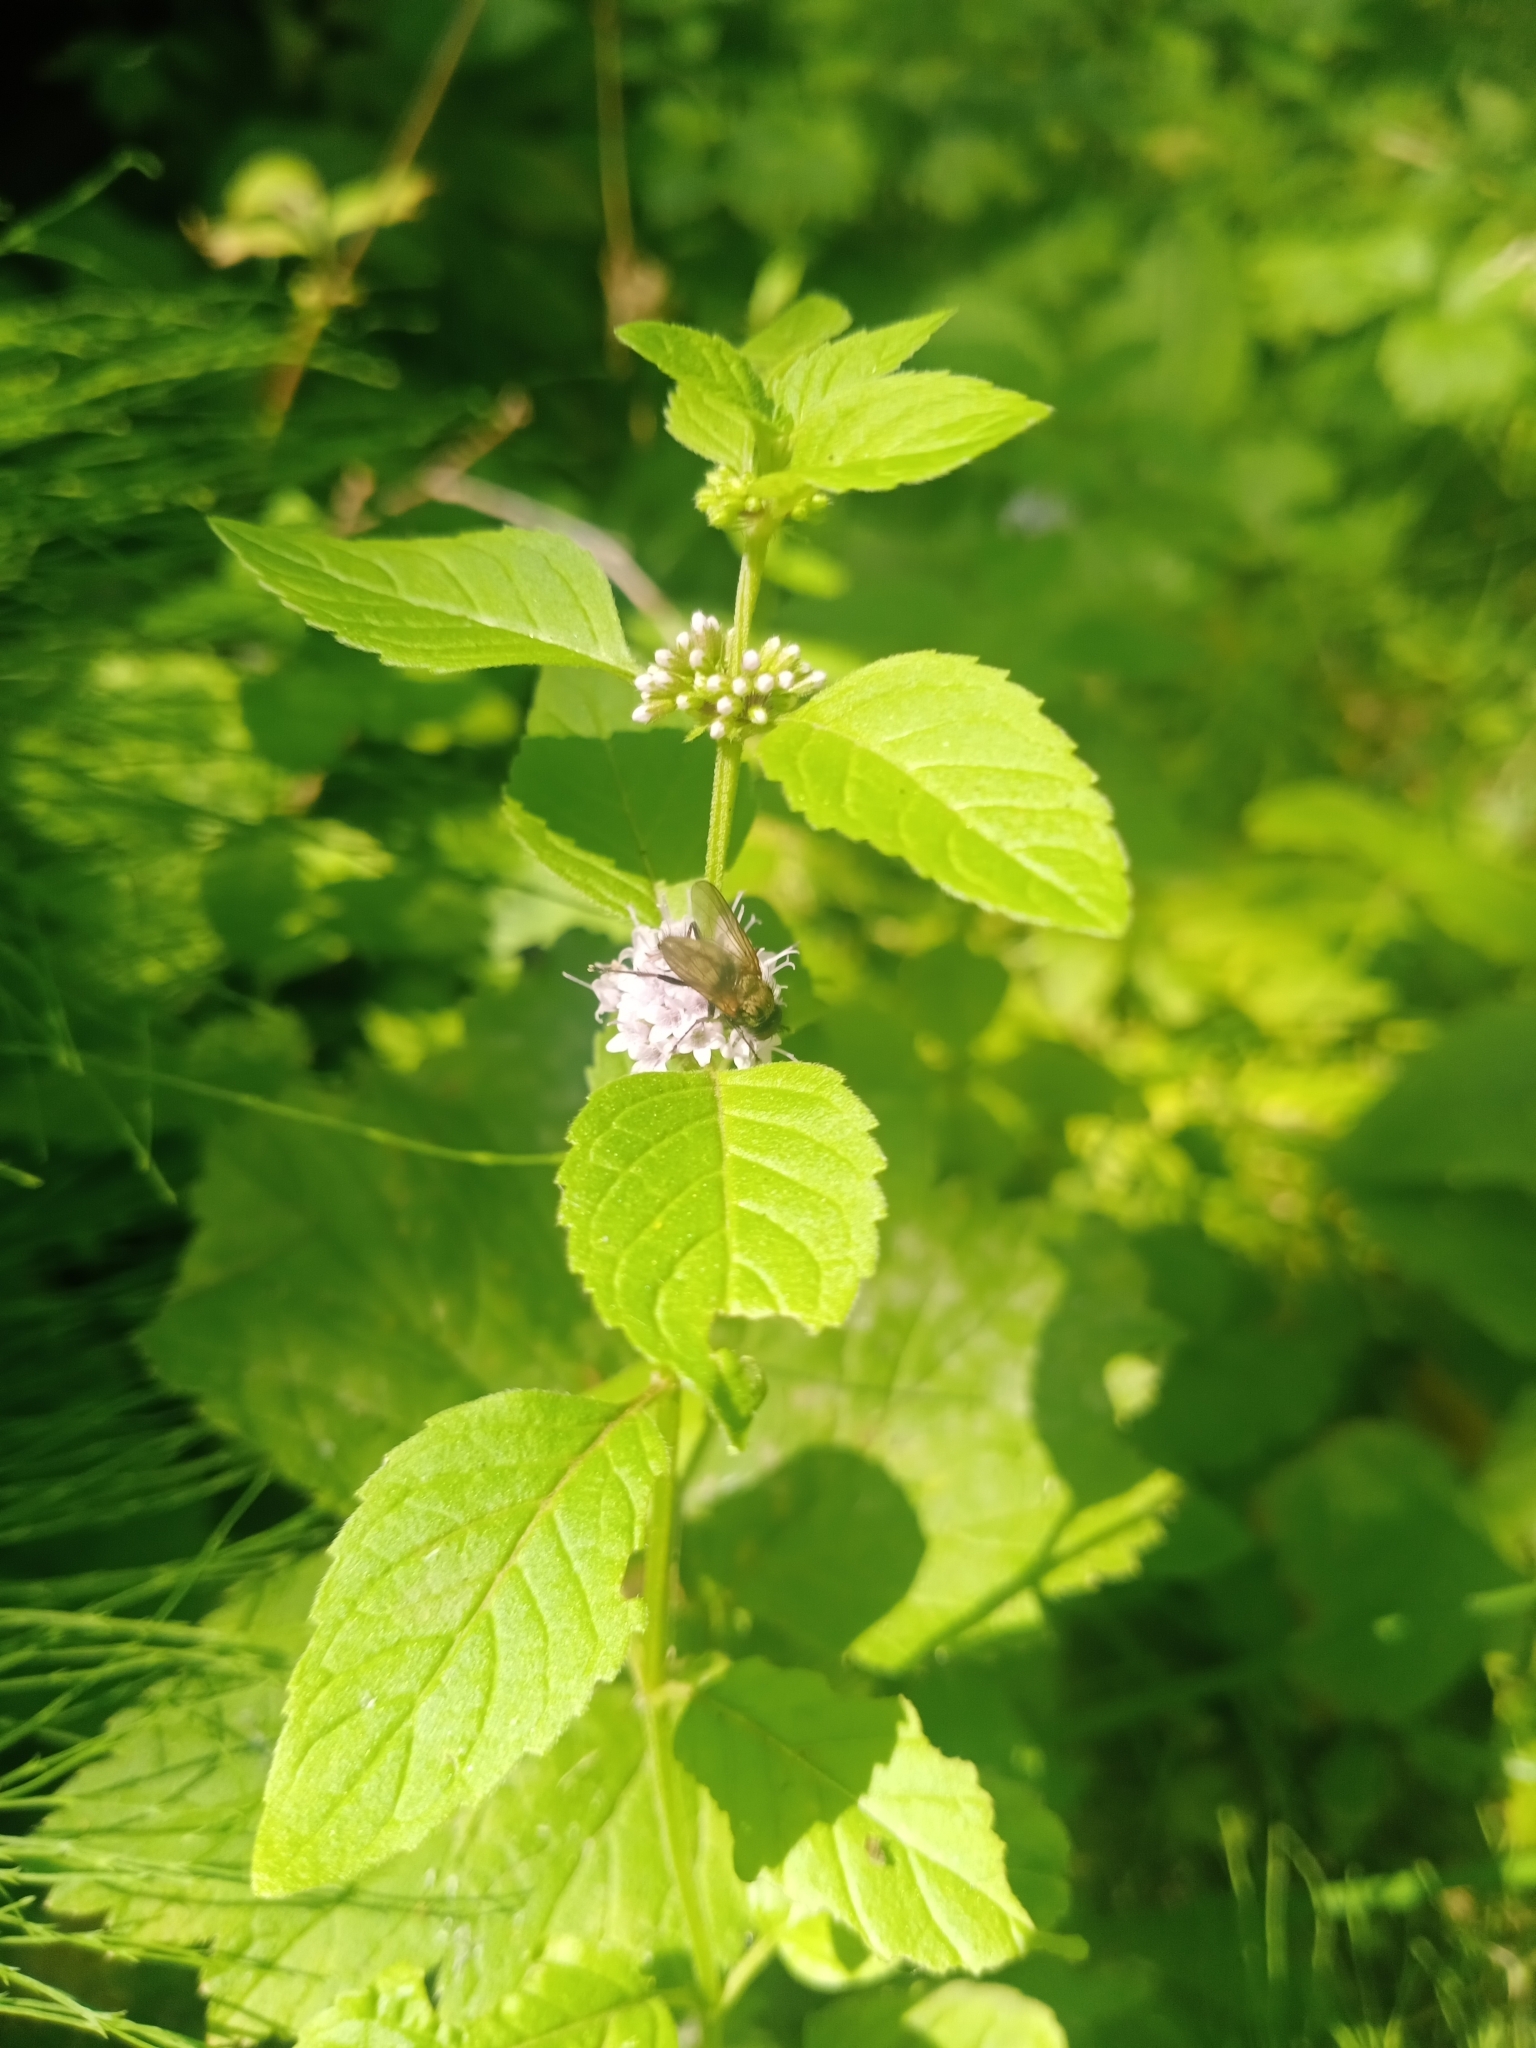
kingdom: Plantae
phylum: Tracheophyta
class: Magnoliopsida
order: Lamiales
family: Lamiaceae
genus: Mentha
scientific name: Mentha arvensis
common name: Corn mint
